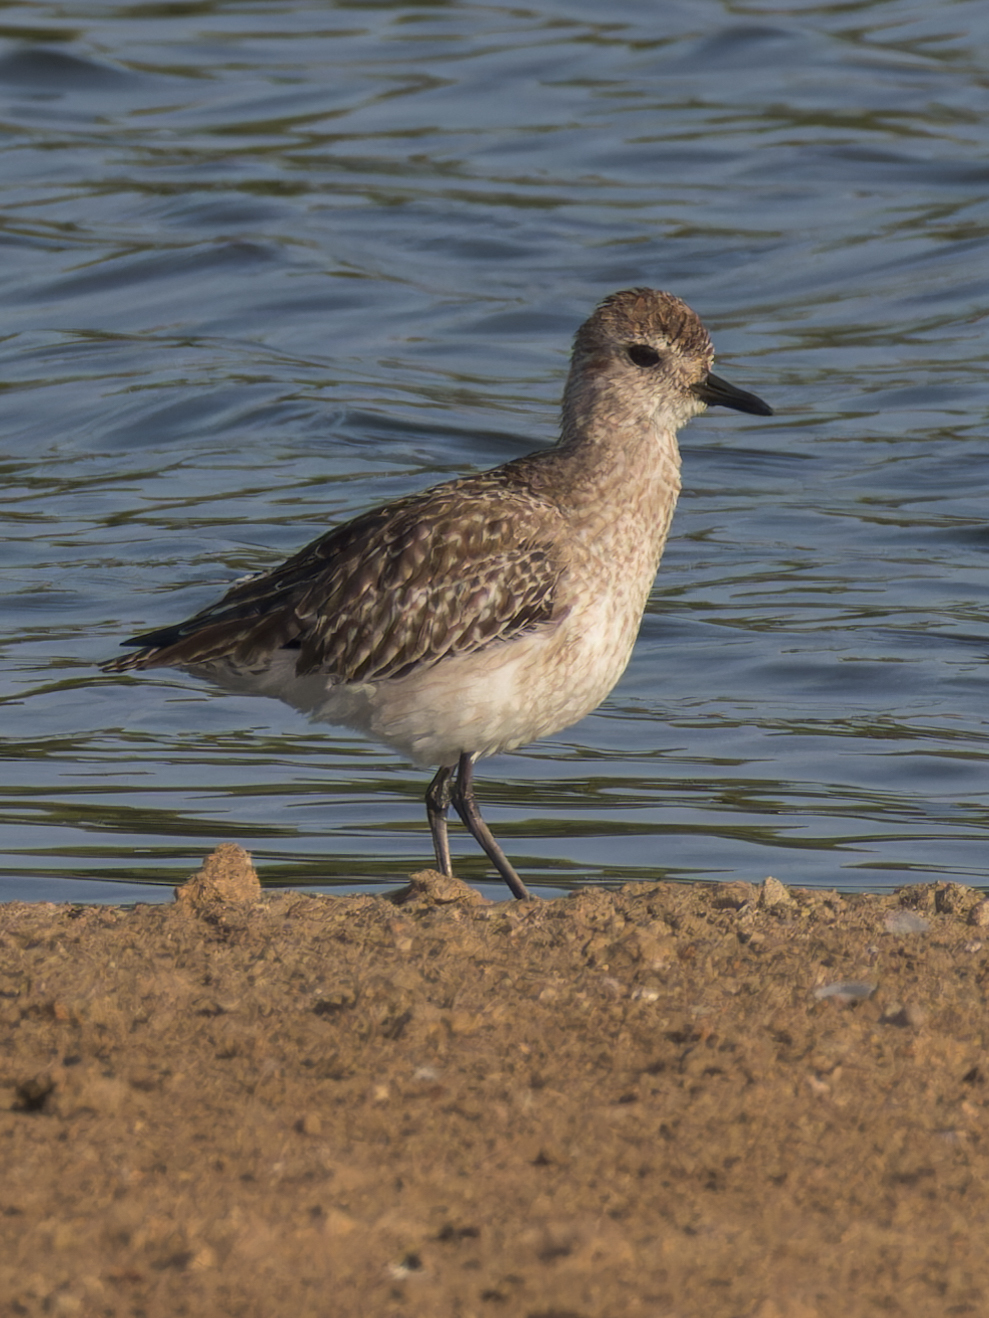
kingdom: Animalia
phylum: Chordata
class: Aves
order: Charadriiformes
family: Charadriidae
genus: Pluvialis
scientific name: Pluvialis squatarola
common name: Grey plover
